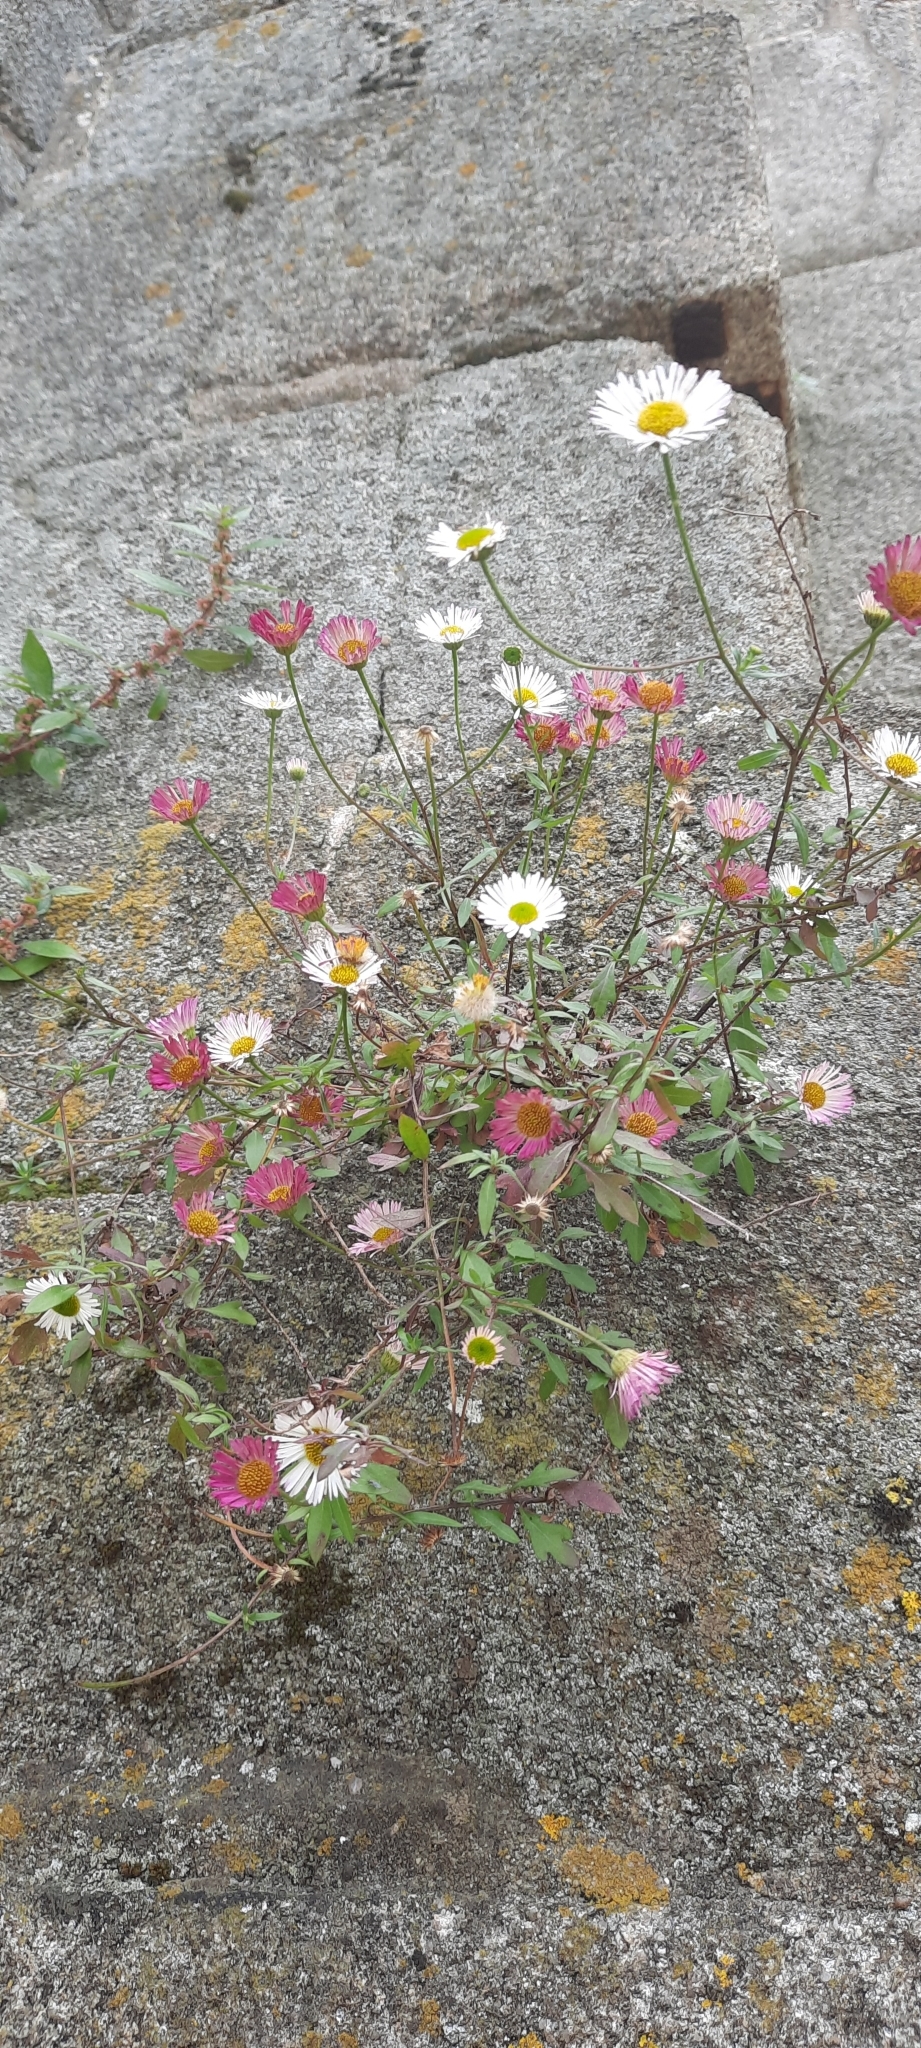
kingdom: Plantae
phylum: Tracheophyta
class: Magnoliopsida
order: Asterales
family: Asteraceae
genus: Erigeron
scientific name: Erigeron karvinskianus
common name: Mexican fleabane
